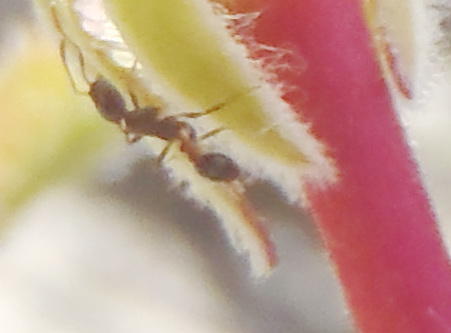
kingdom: Animalia
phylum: Arthropoda
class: Insecta
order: Hymenoptera
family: Formicidae
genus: Monomorium
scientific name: Monomorium excelsior
